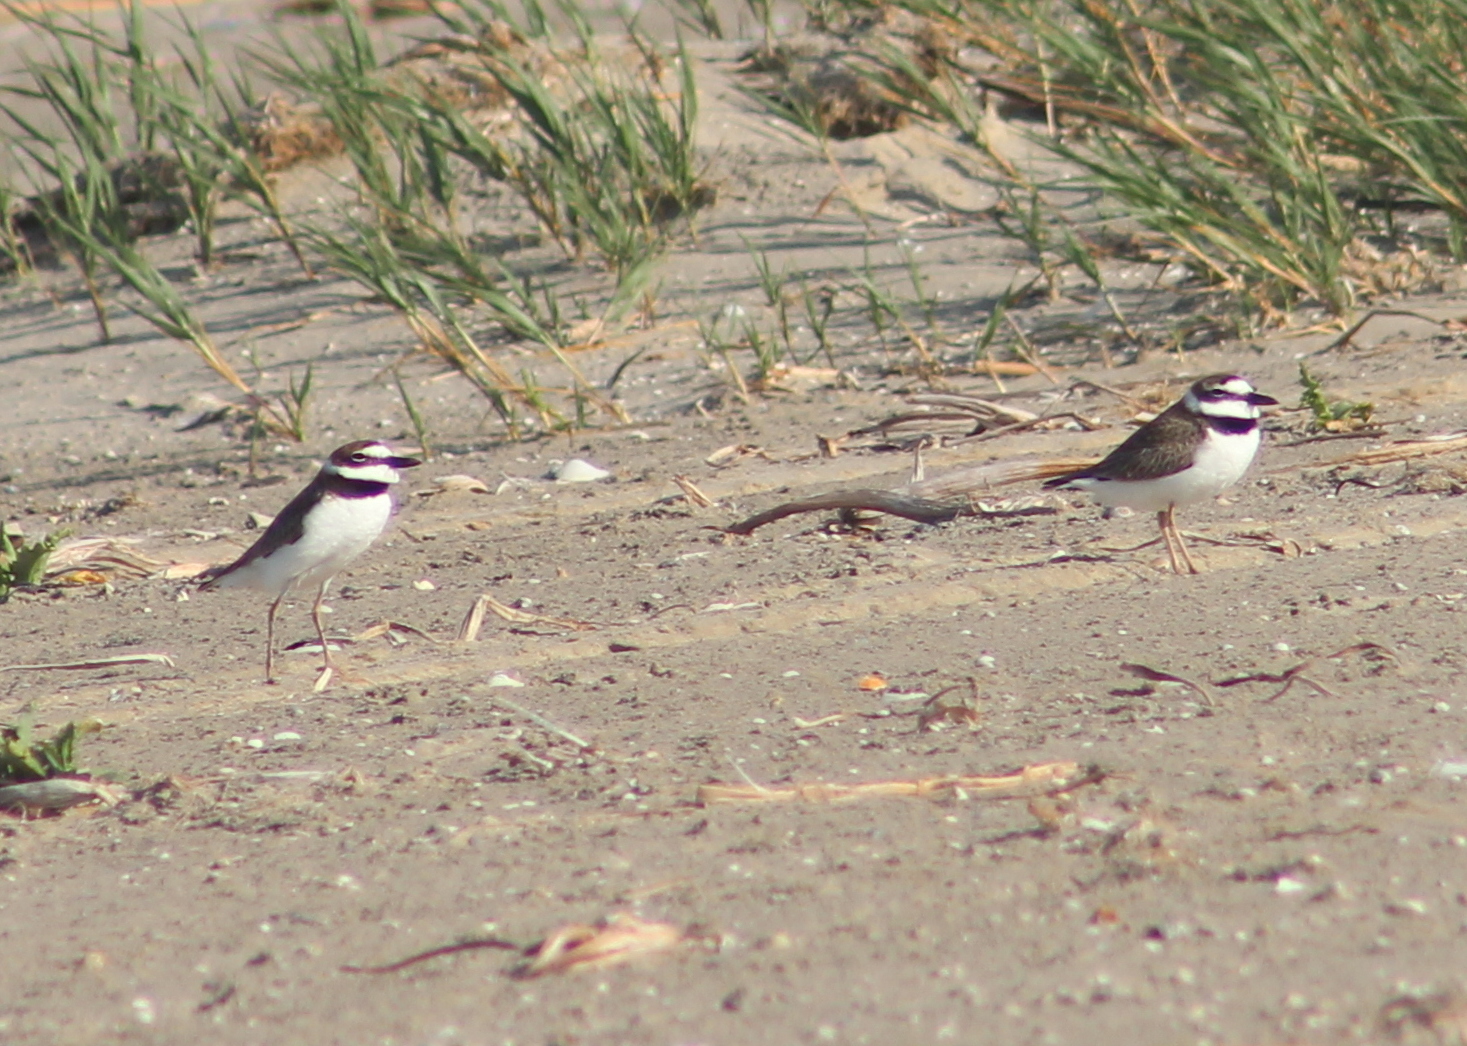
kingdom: Animalia
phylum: Chordata
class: Aves
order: Charadriiformes
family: Charadriidae
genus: Anarhynchus
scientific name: Anarhynchus
